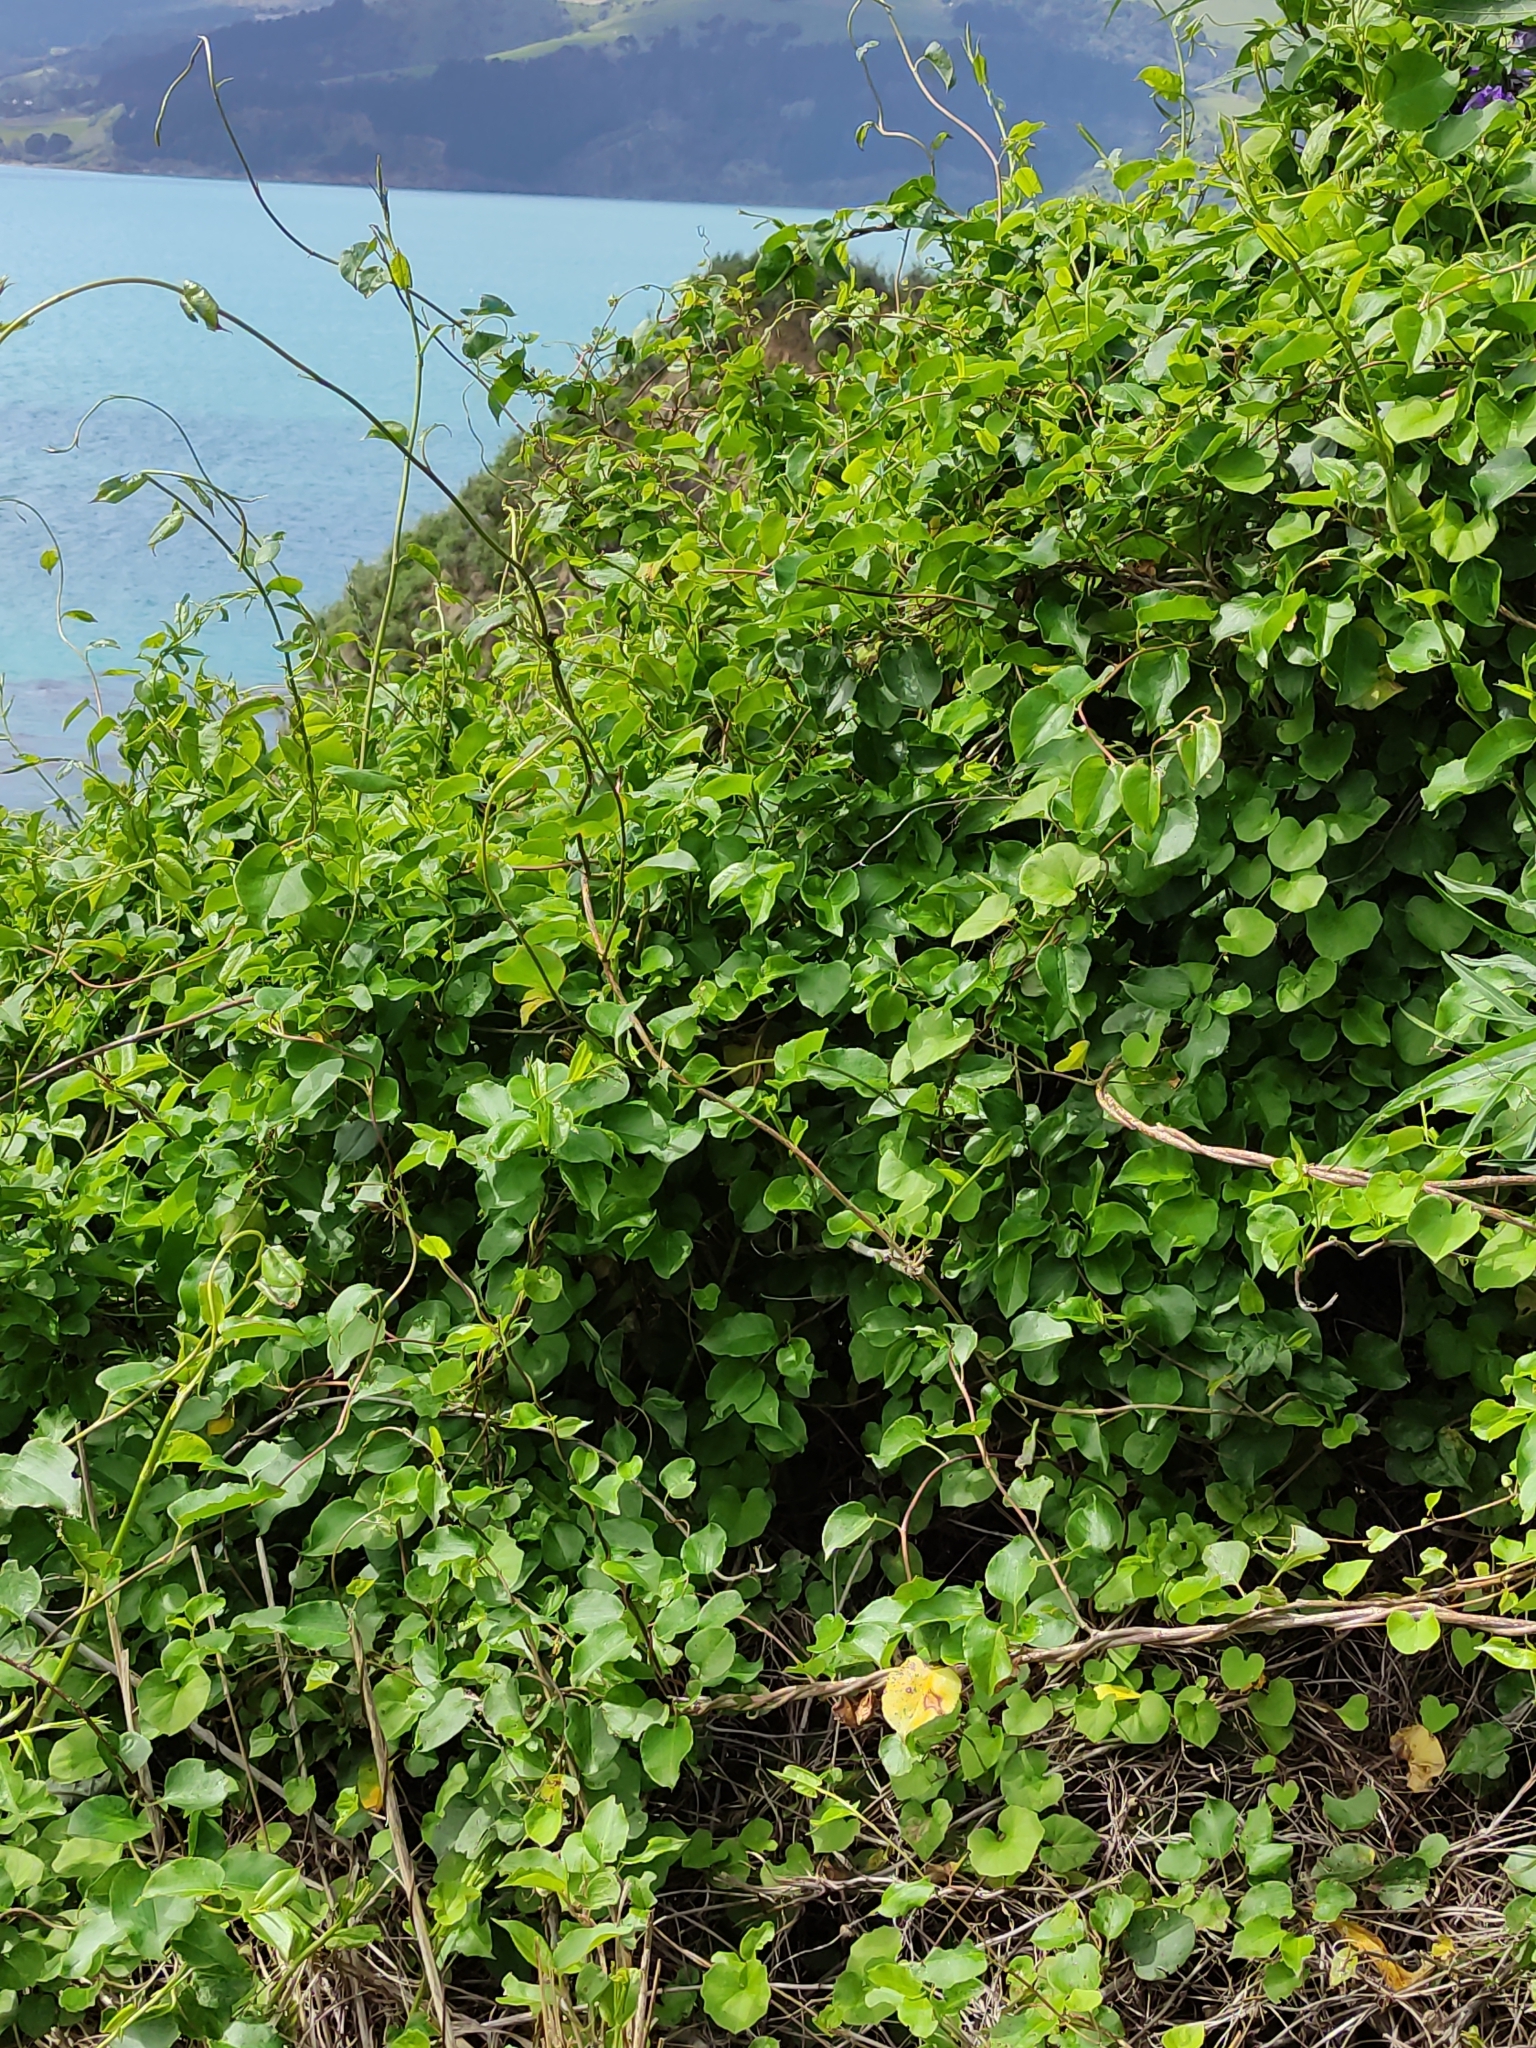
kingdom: Plantae
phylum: Tracheophyta
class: Magnoliopsida
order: Caryophyllales
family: Polygonaceae
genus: Muehlenbeckia
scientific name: Muehlenbeckia australis
